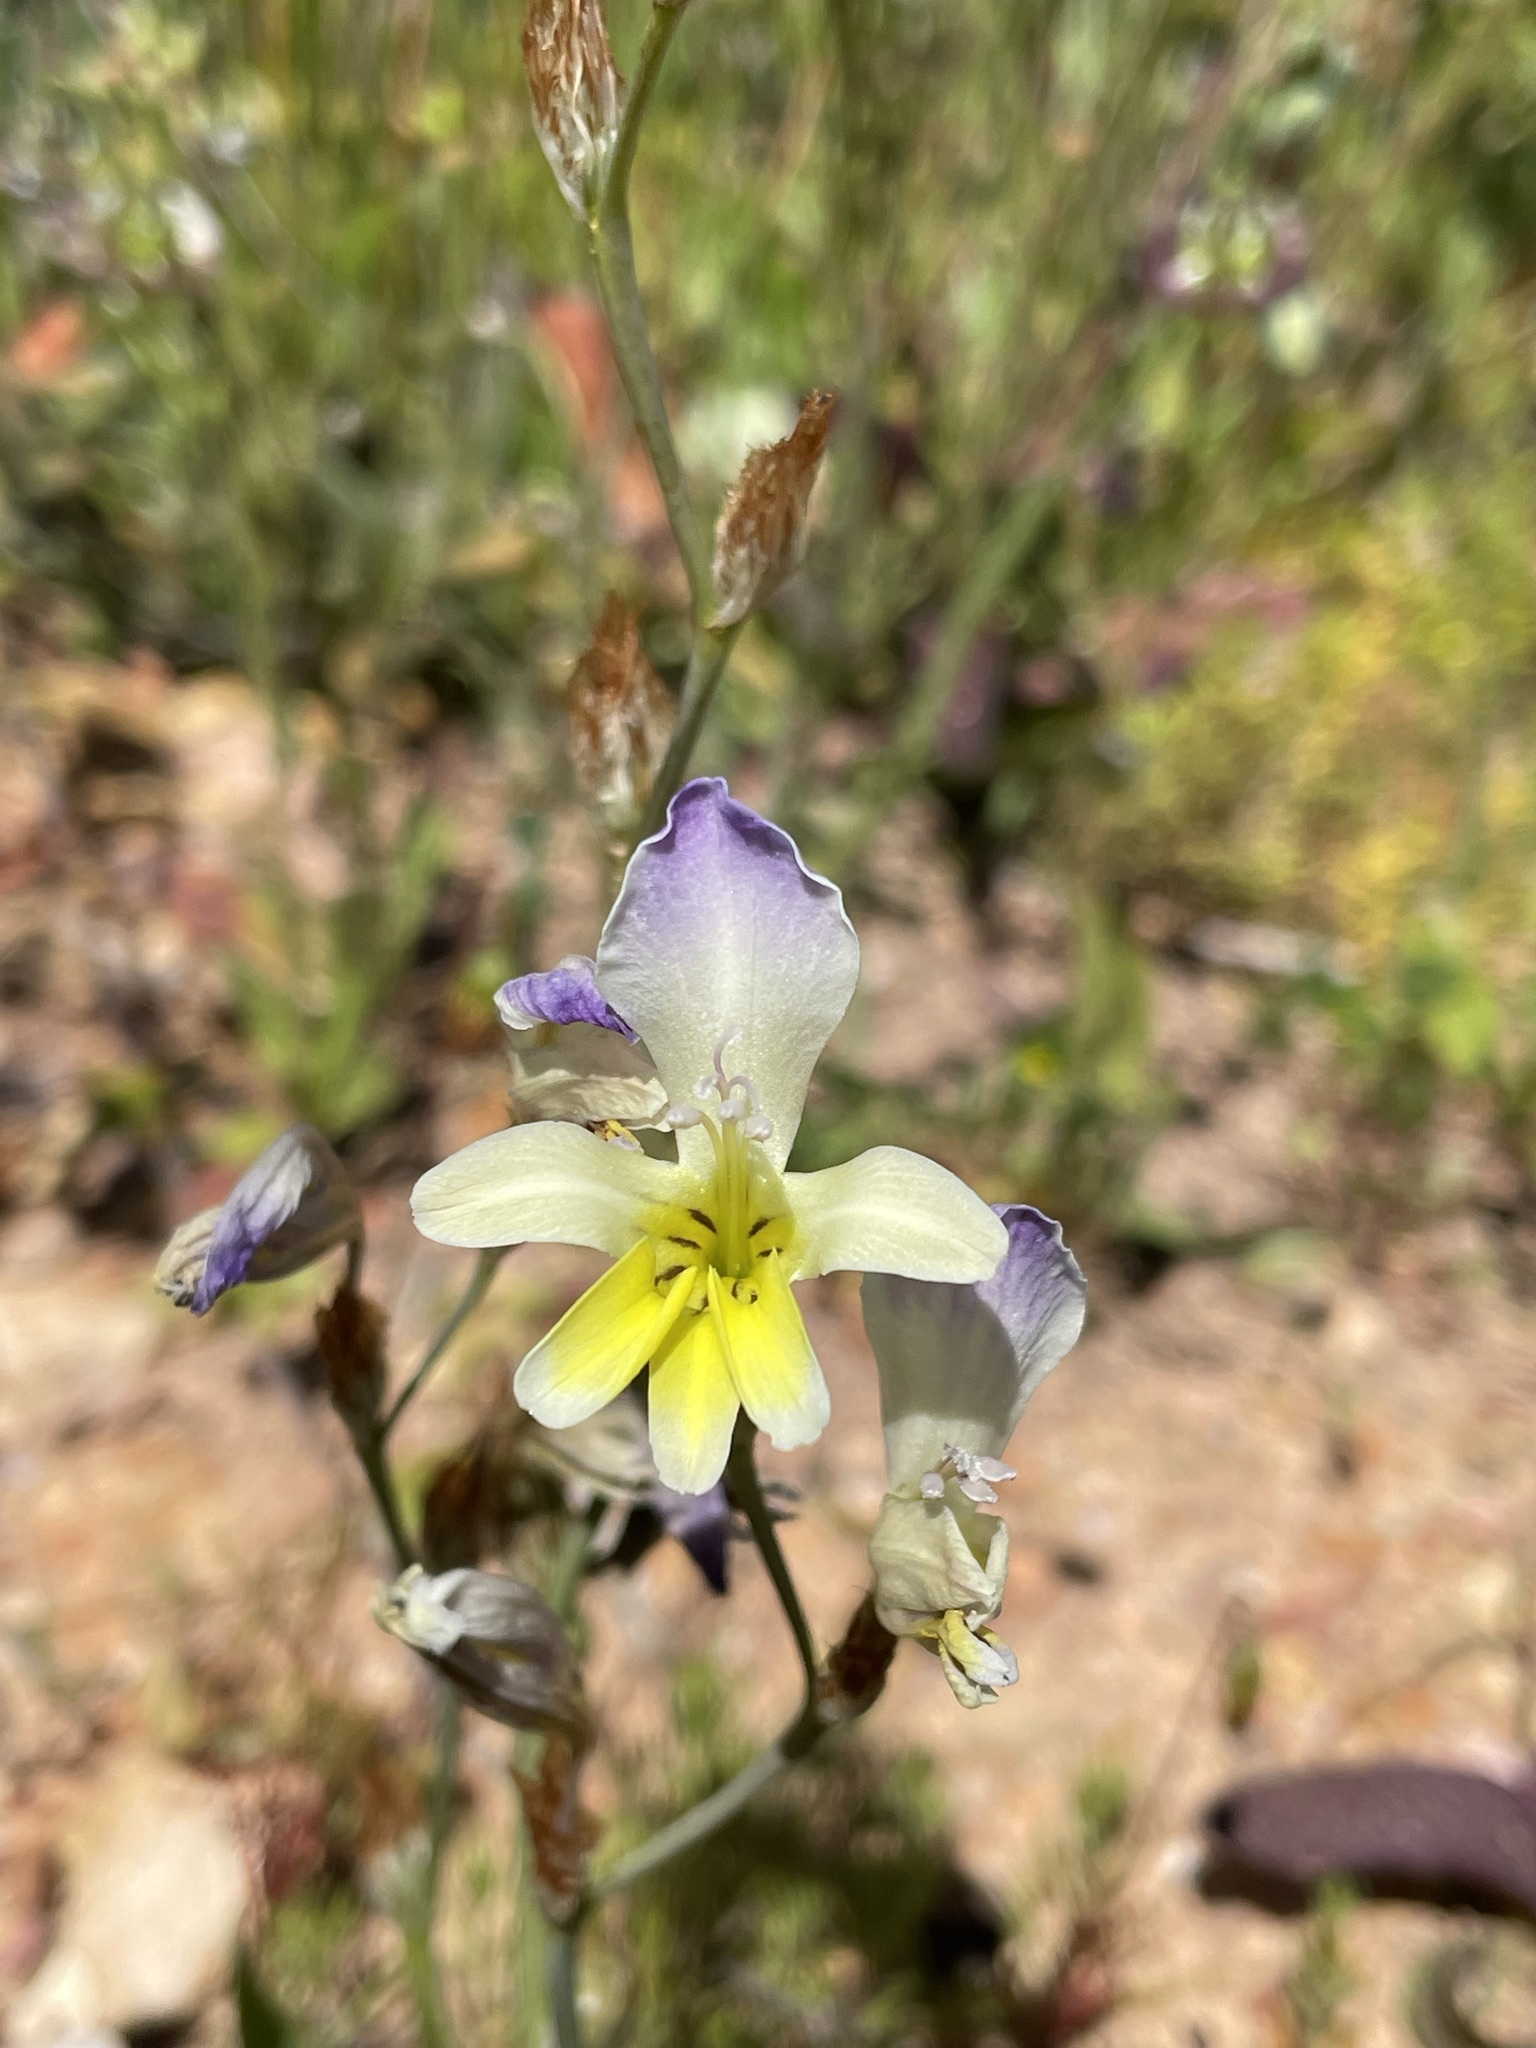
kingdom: Plantae
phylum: Tracheophyta
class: Liliopsida
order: Asparagales
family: Iridaceae
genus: Sparaxis
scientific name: Sparaxis villosa
